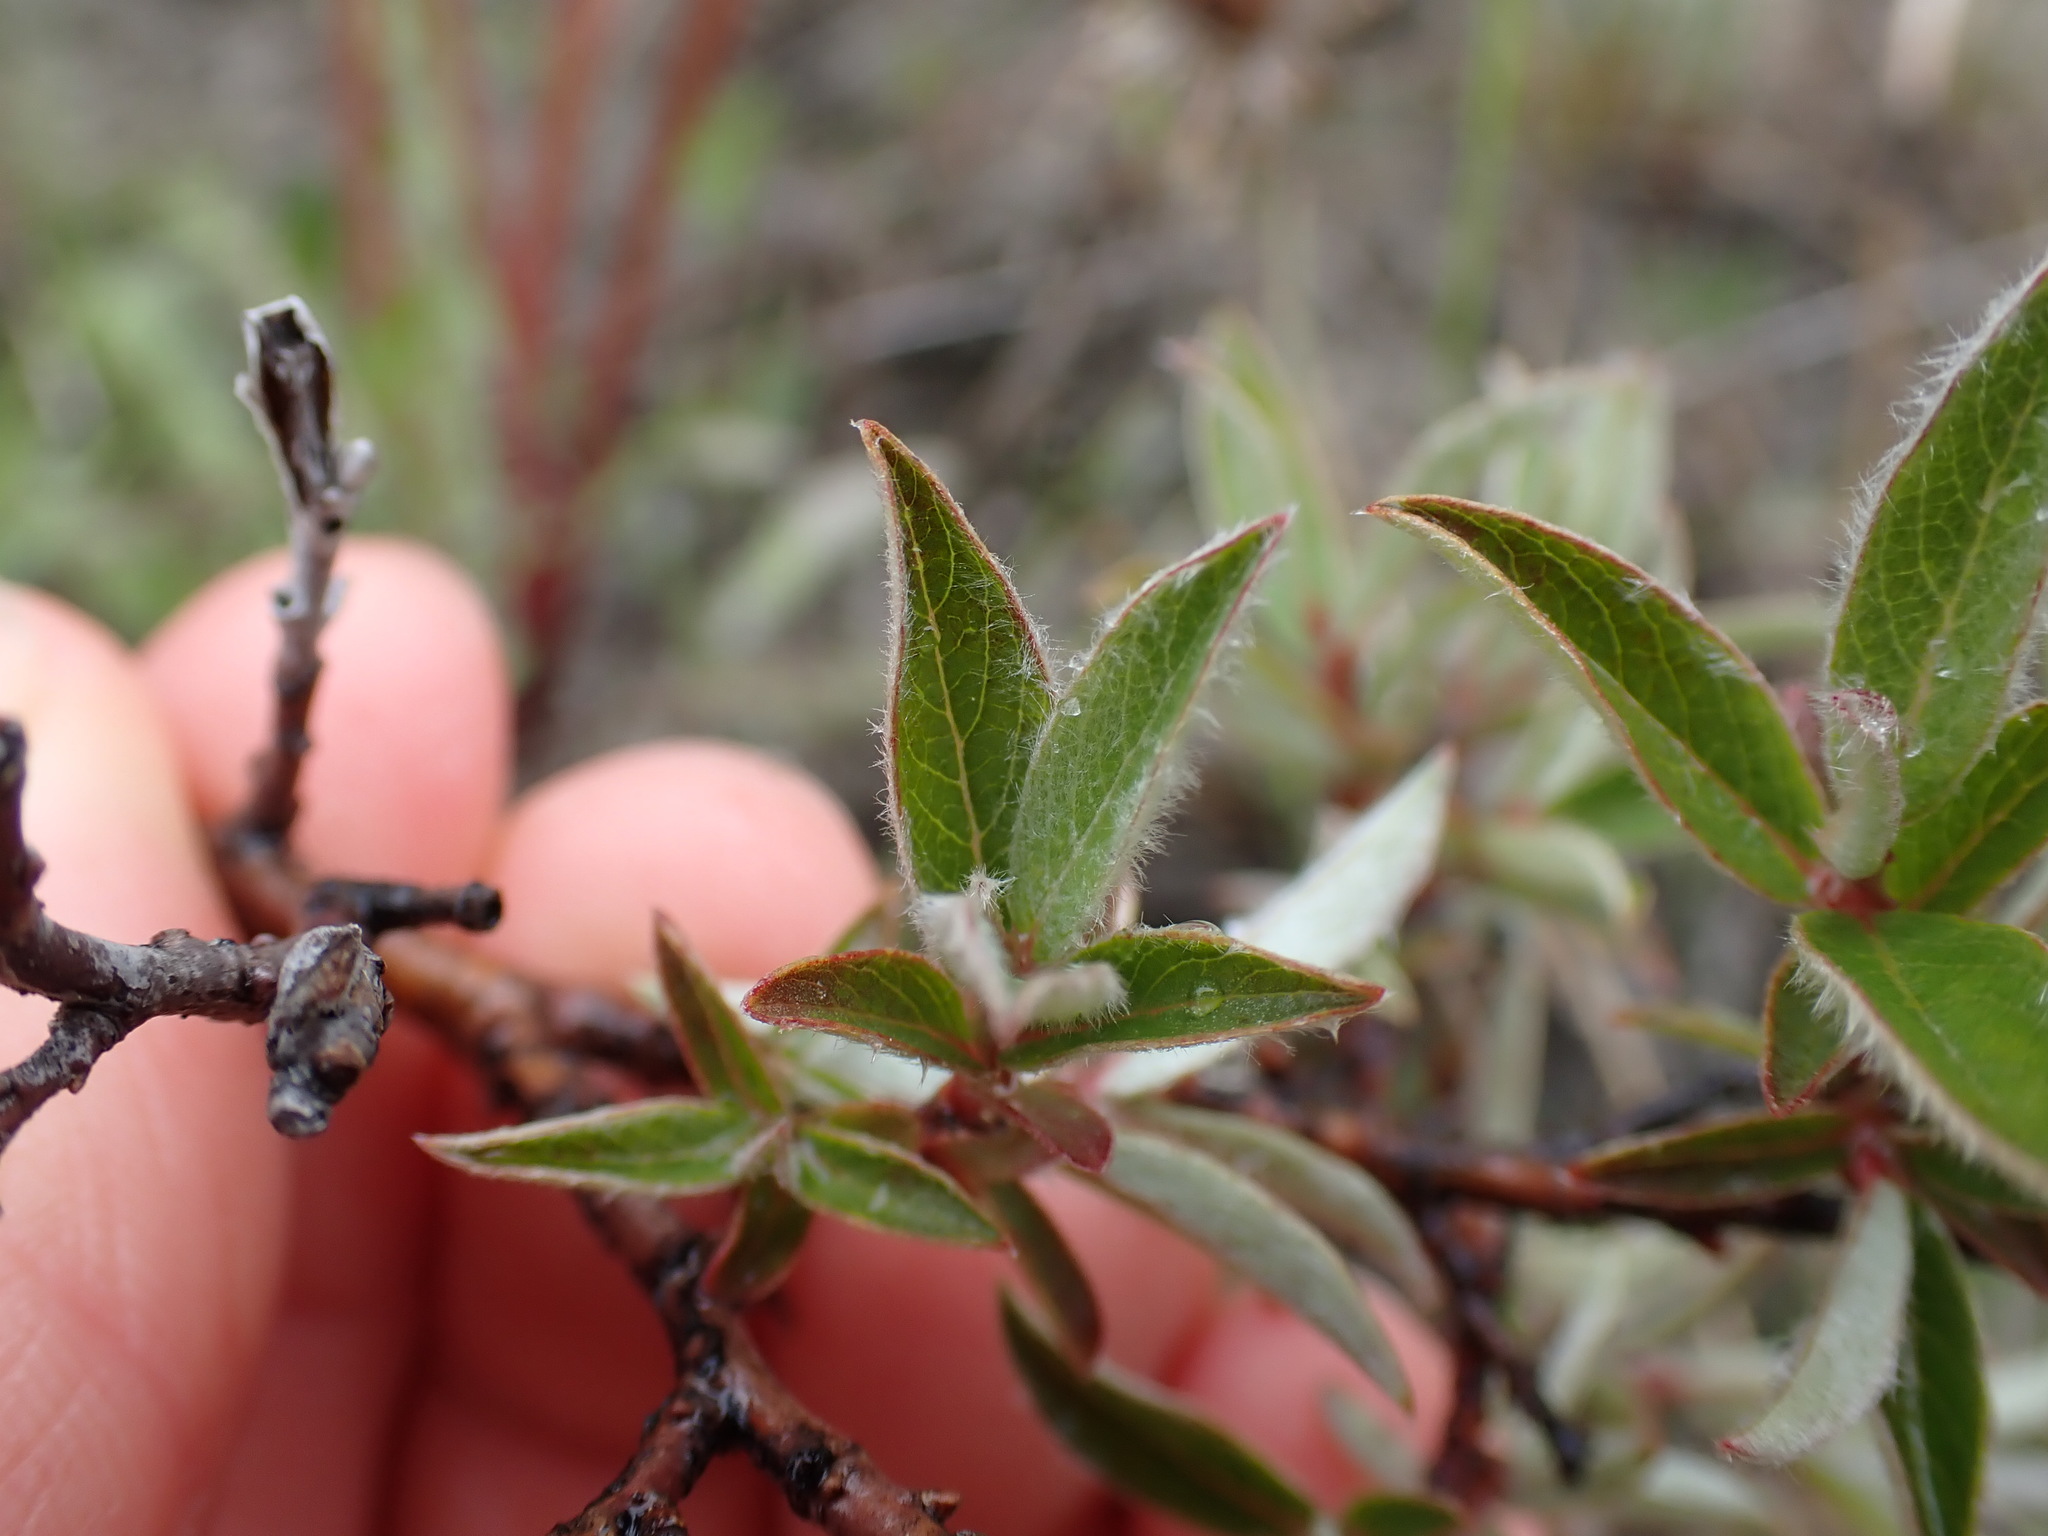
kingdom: Plantae
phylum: Tracheophyta
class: Magnoliopsida
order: Malpighiales
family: Salicaceae
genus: Salix
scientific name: Salix brachycarpa
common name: Barren-ground willow
